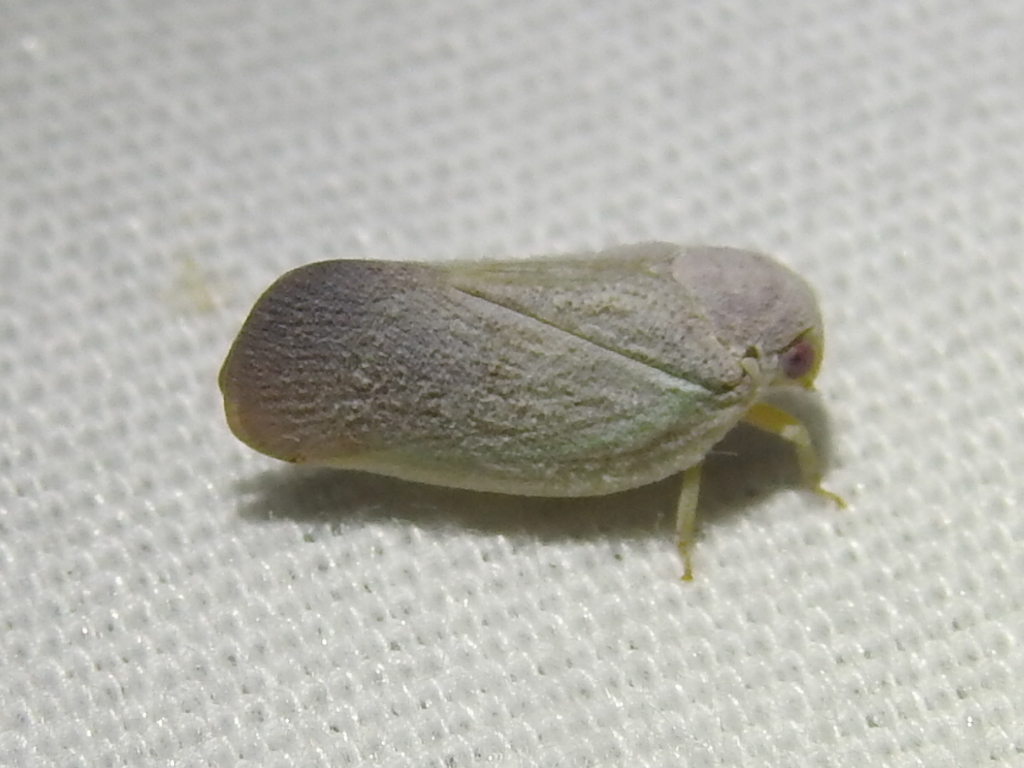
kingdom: Animalia
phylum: Arthropoda
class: Insecta
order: Hemiptera
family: Flatidae
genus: Flatormenis
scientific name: Flatormenis saucia
